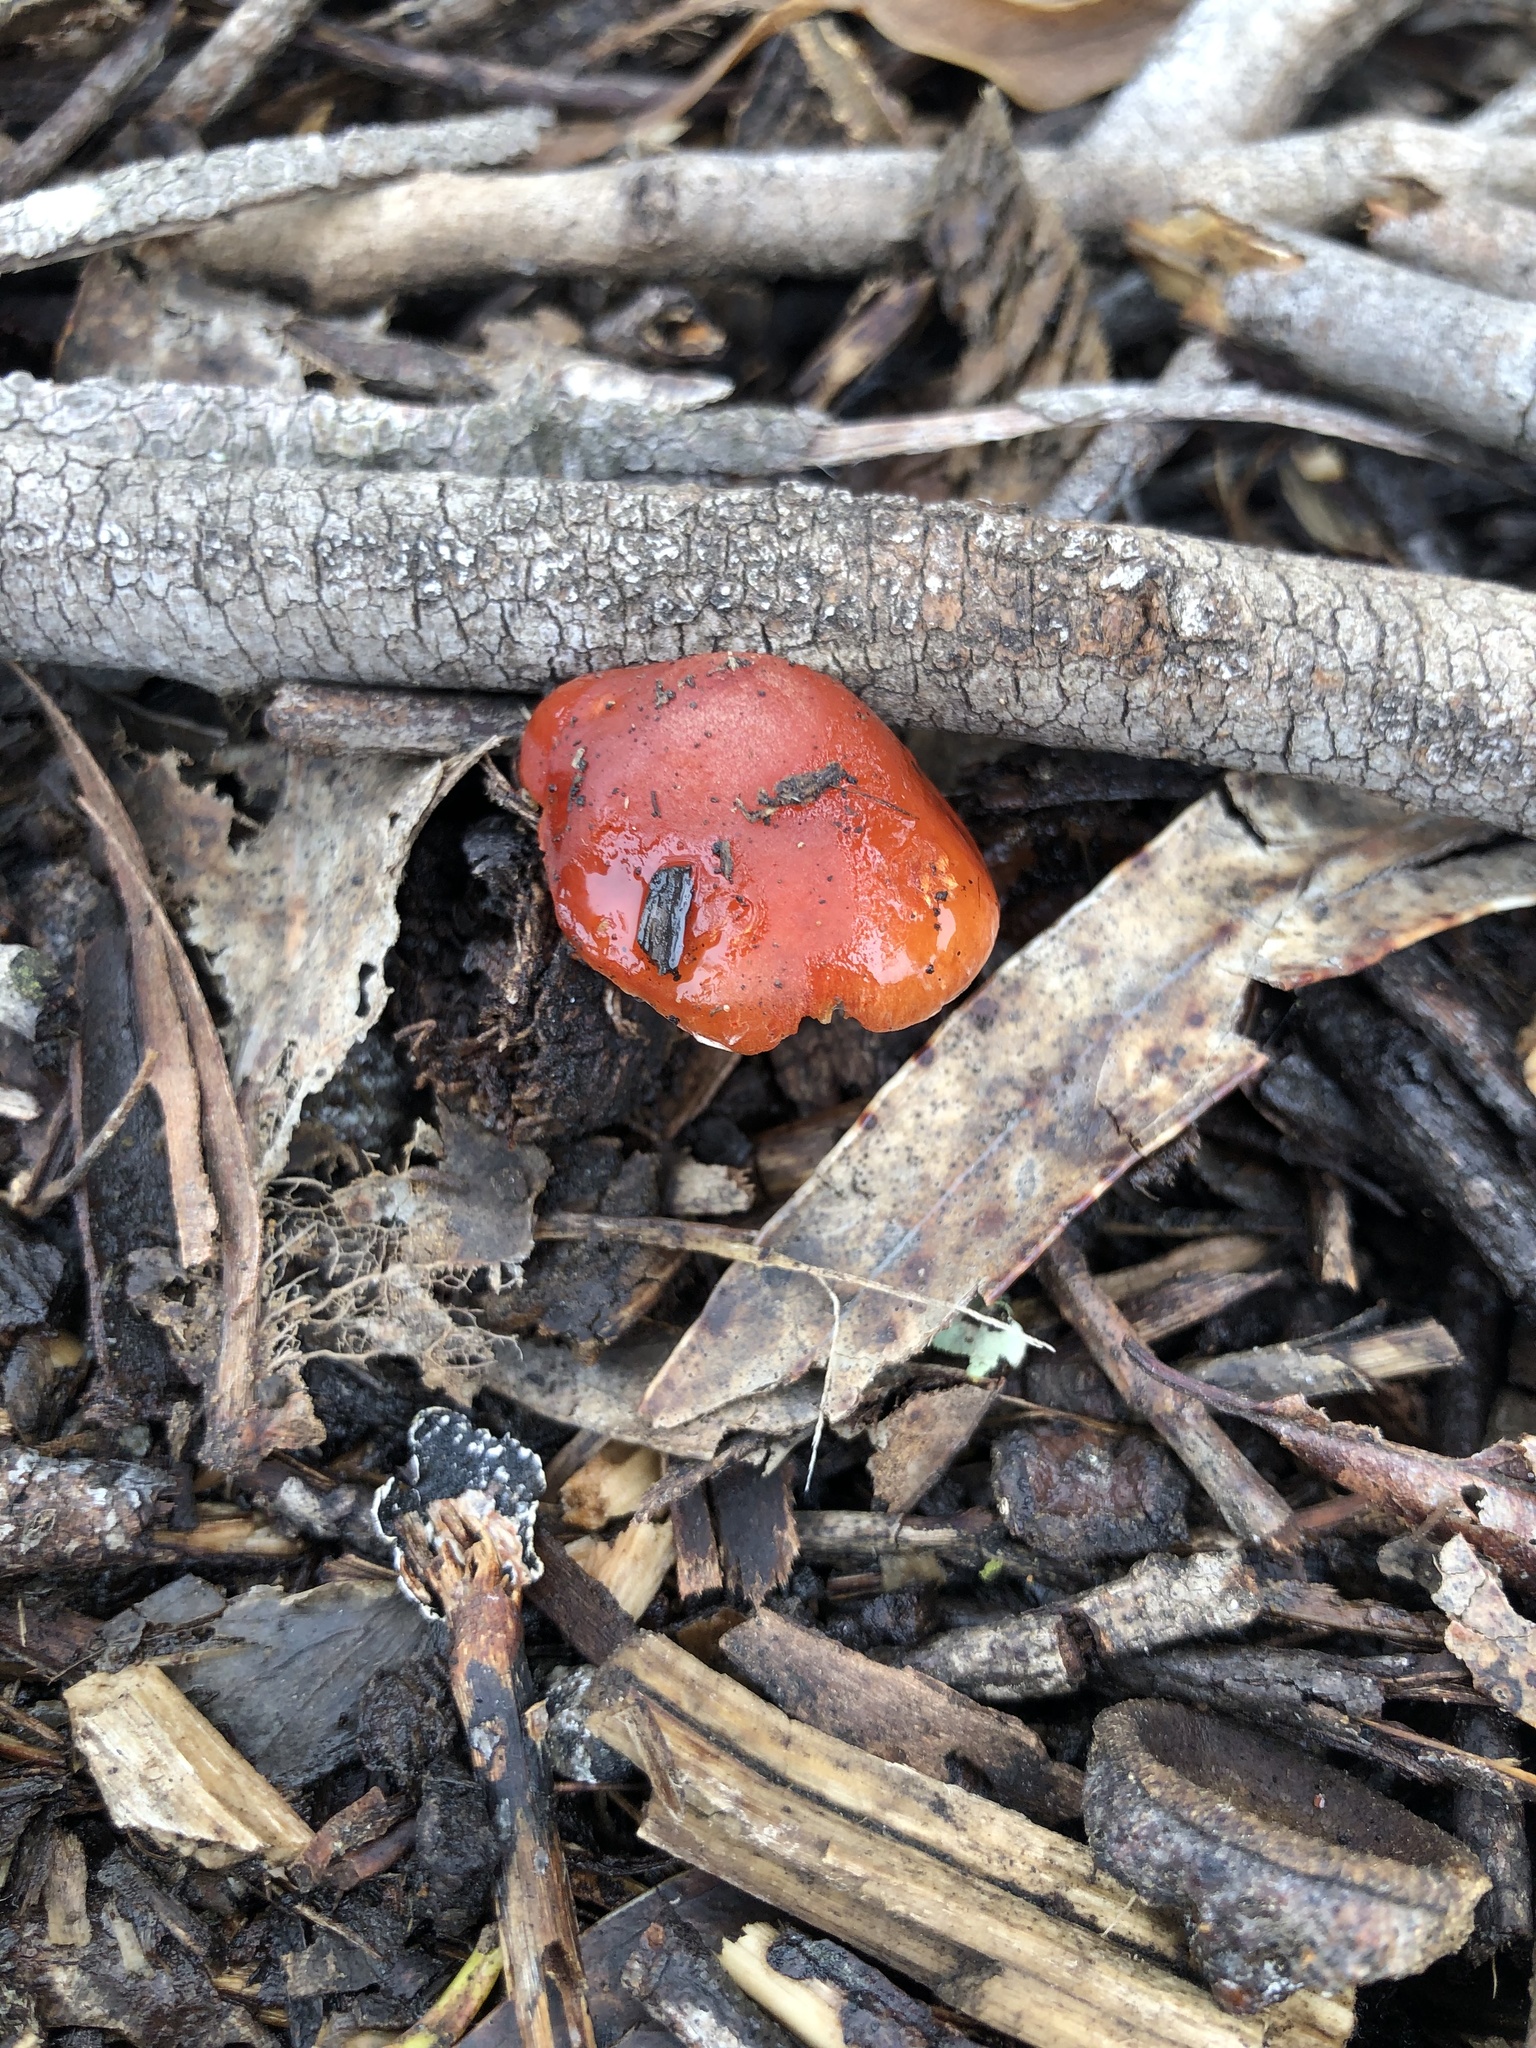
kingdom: Fungi
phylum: Basidiomycota
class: Agaricomycetes
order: Agaricales
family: Strophariaceae
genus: Leratiomyces
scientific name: Leratiomyces ceres
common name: Redlead roundhead
